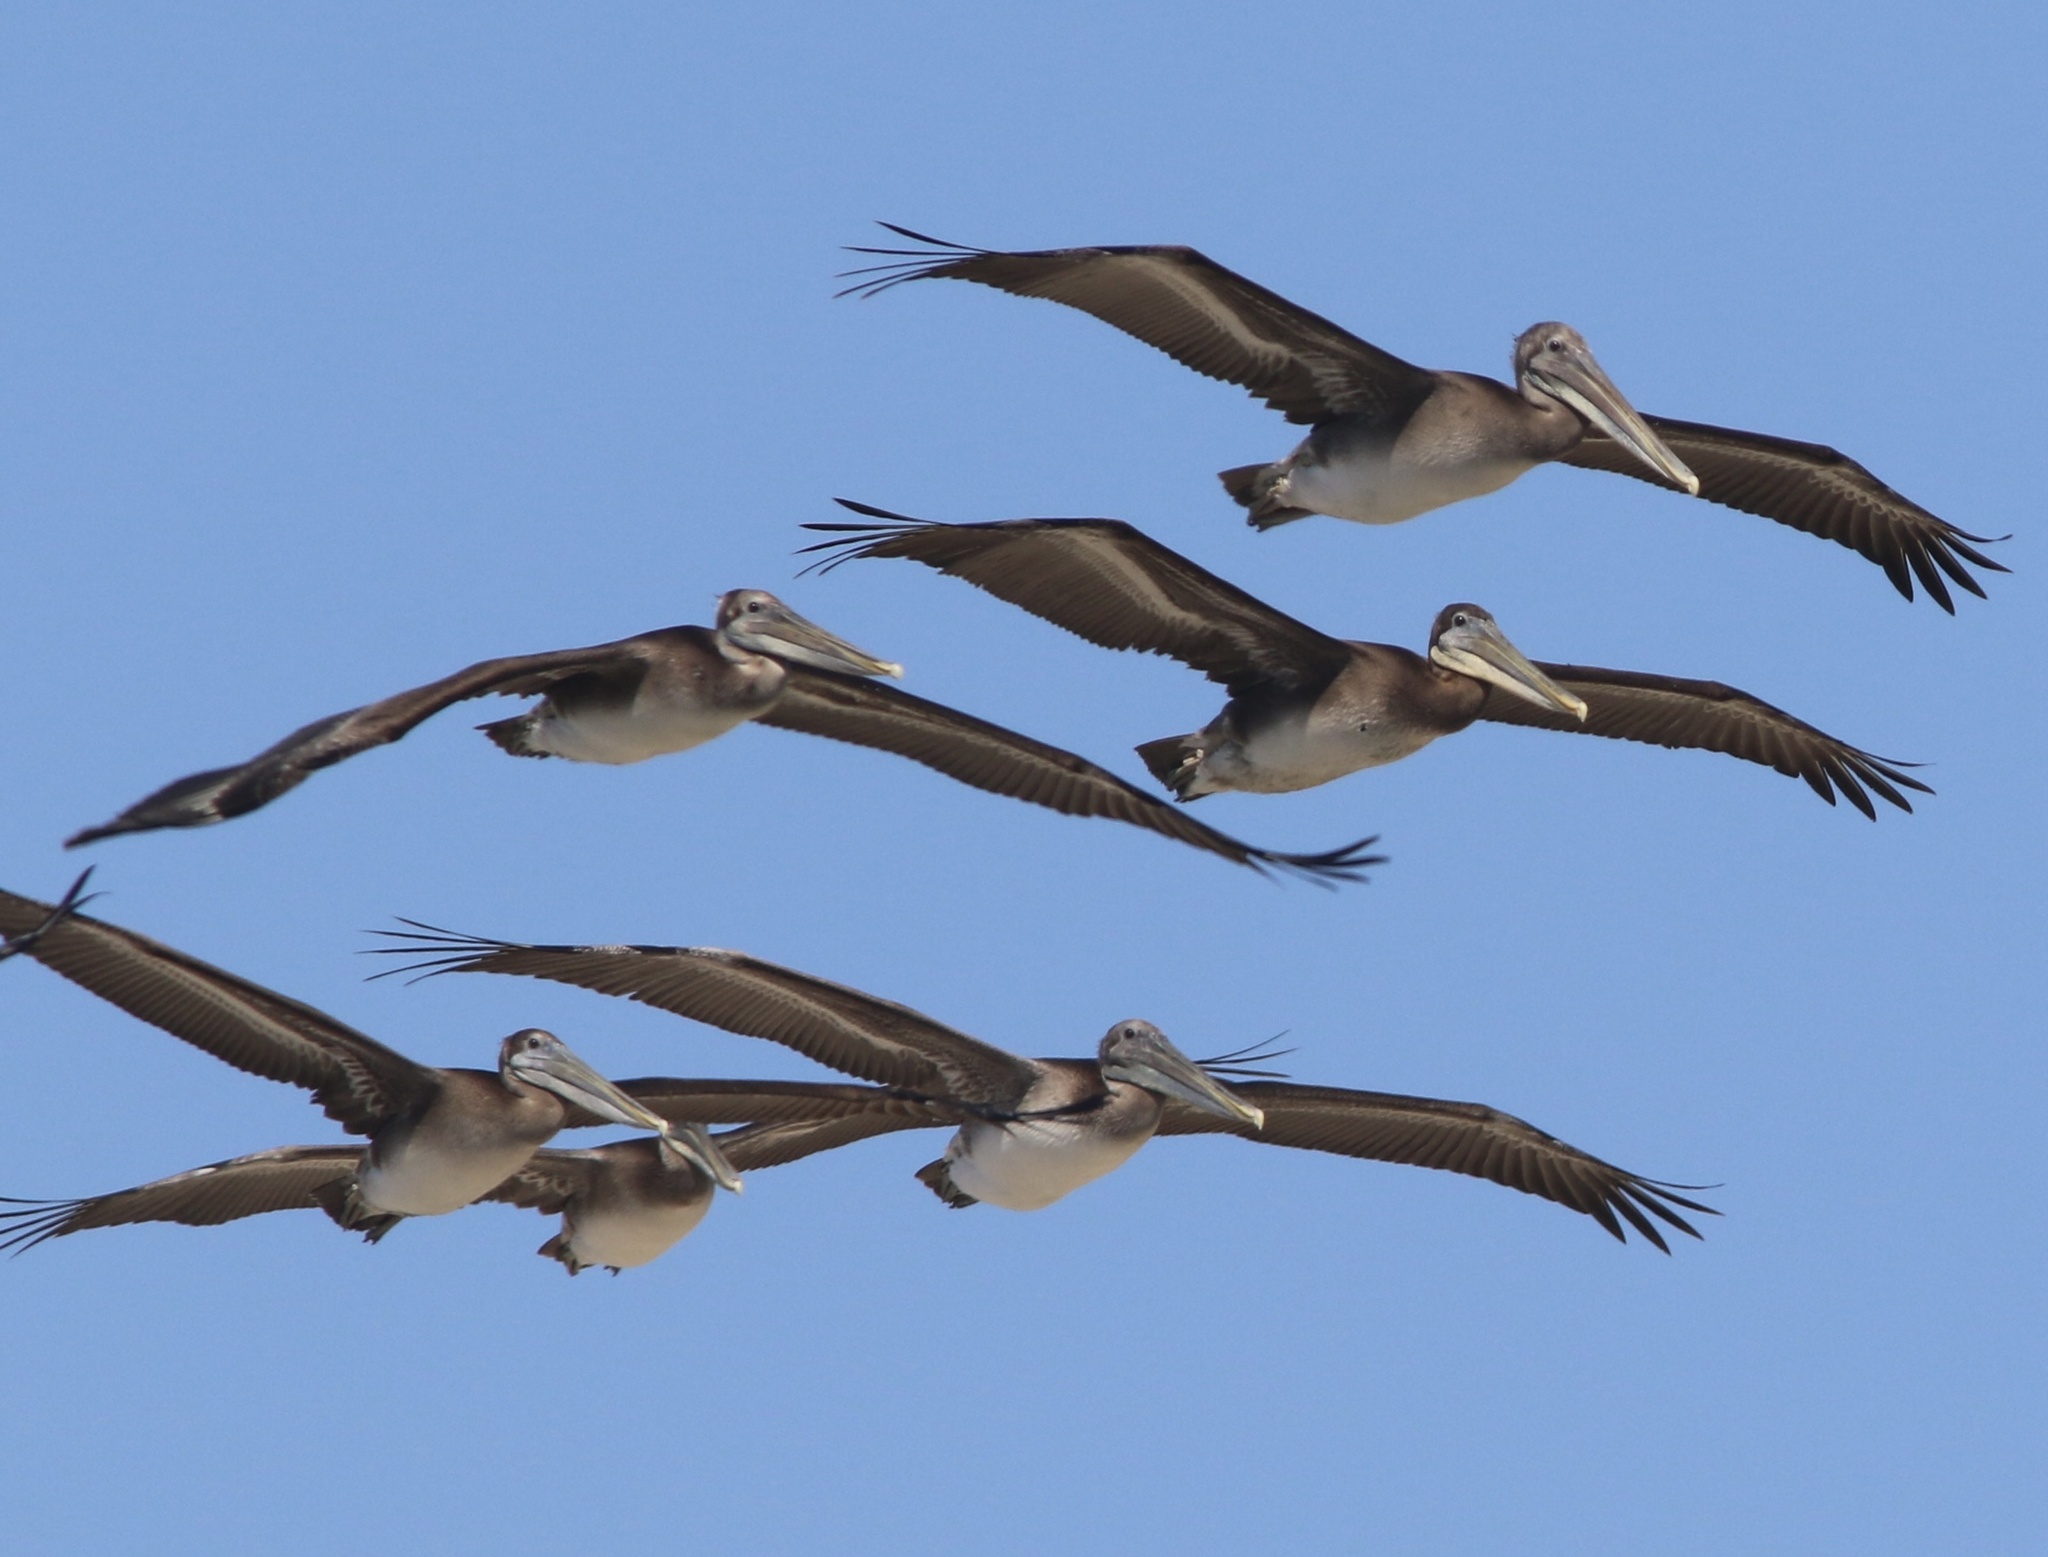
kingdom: Animalia
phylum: Chordata
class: Aves
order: Pelecaniformes
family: Pelecanidae
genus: Pelecanus
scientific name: Pelecanus occidentalis
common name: Brown pelican
